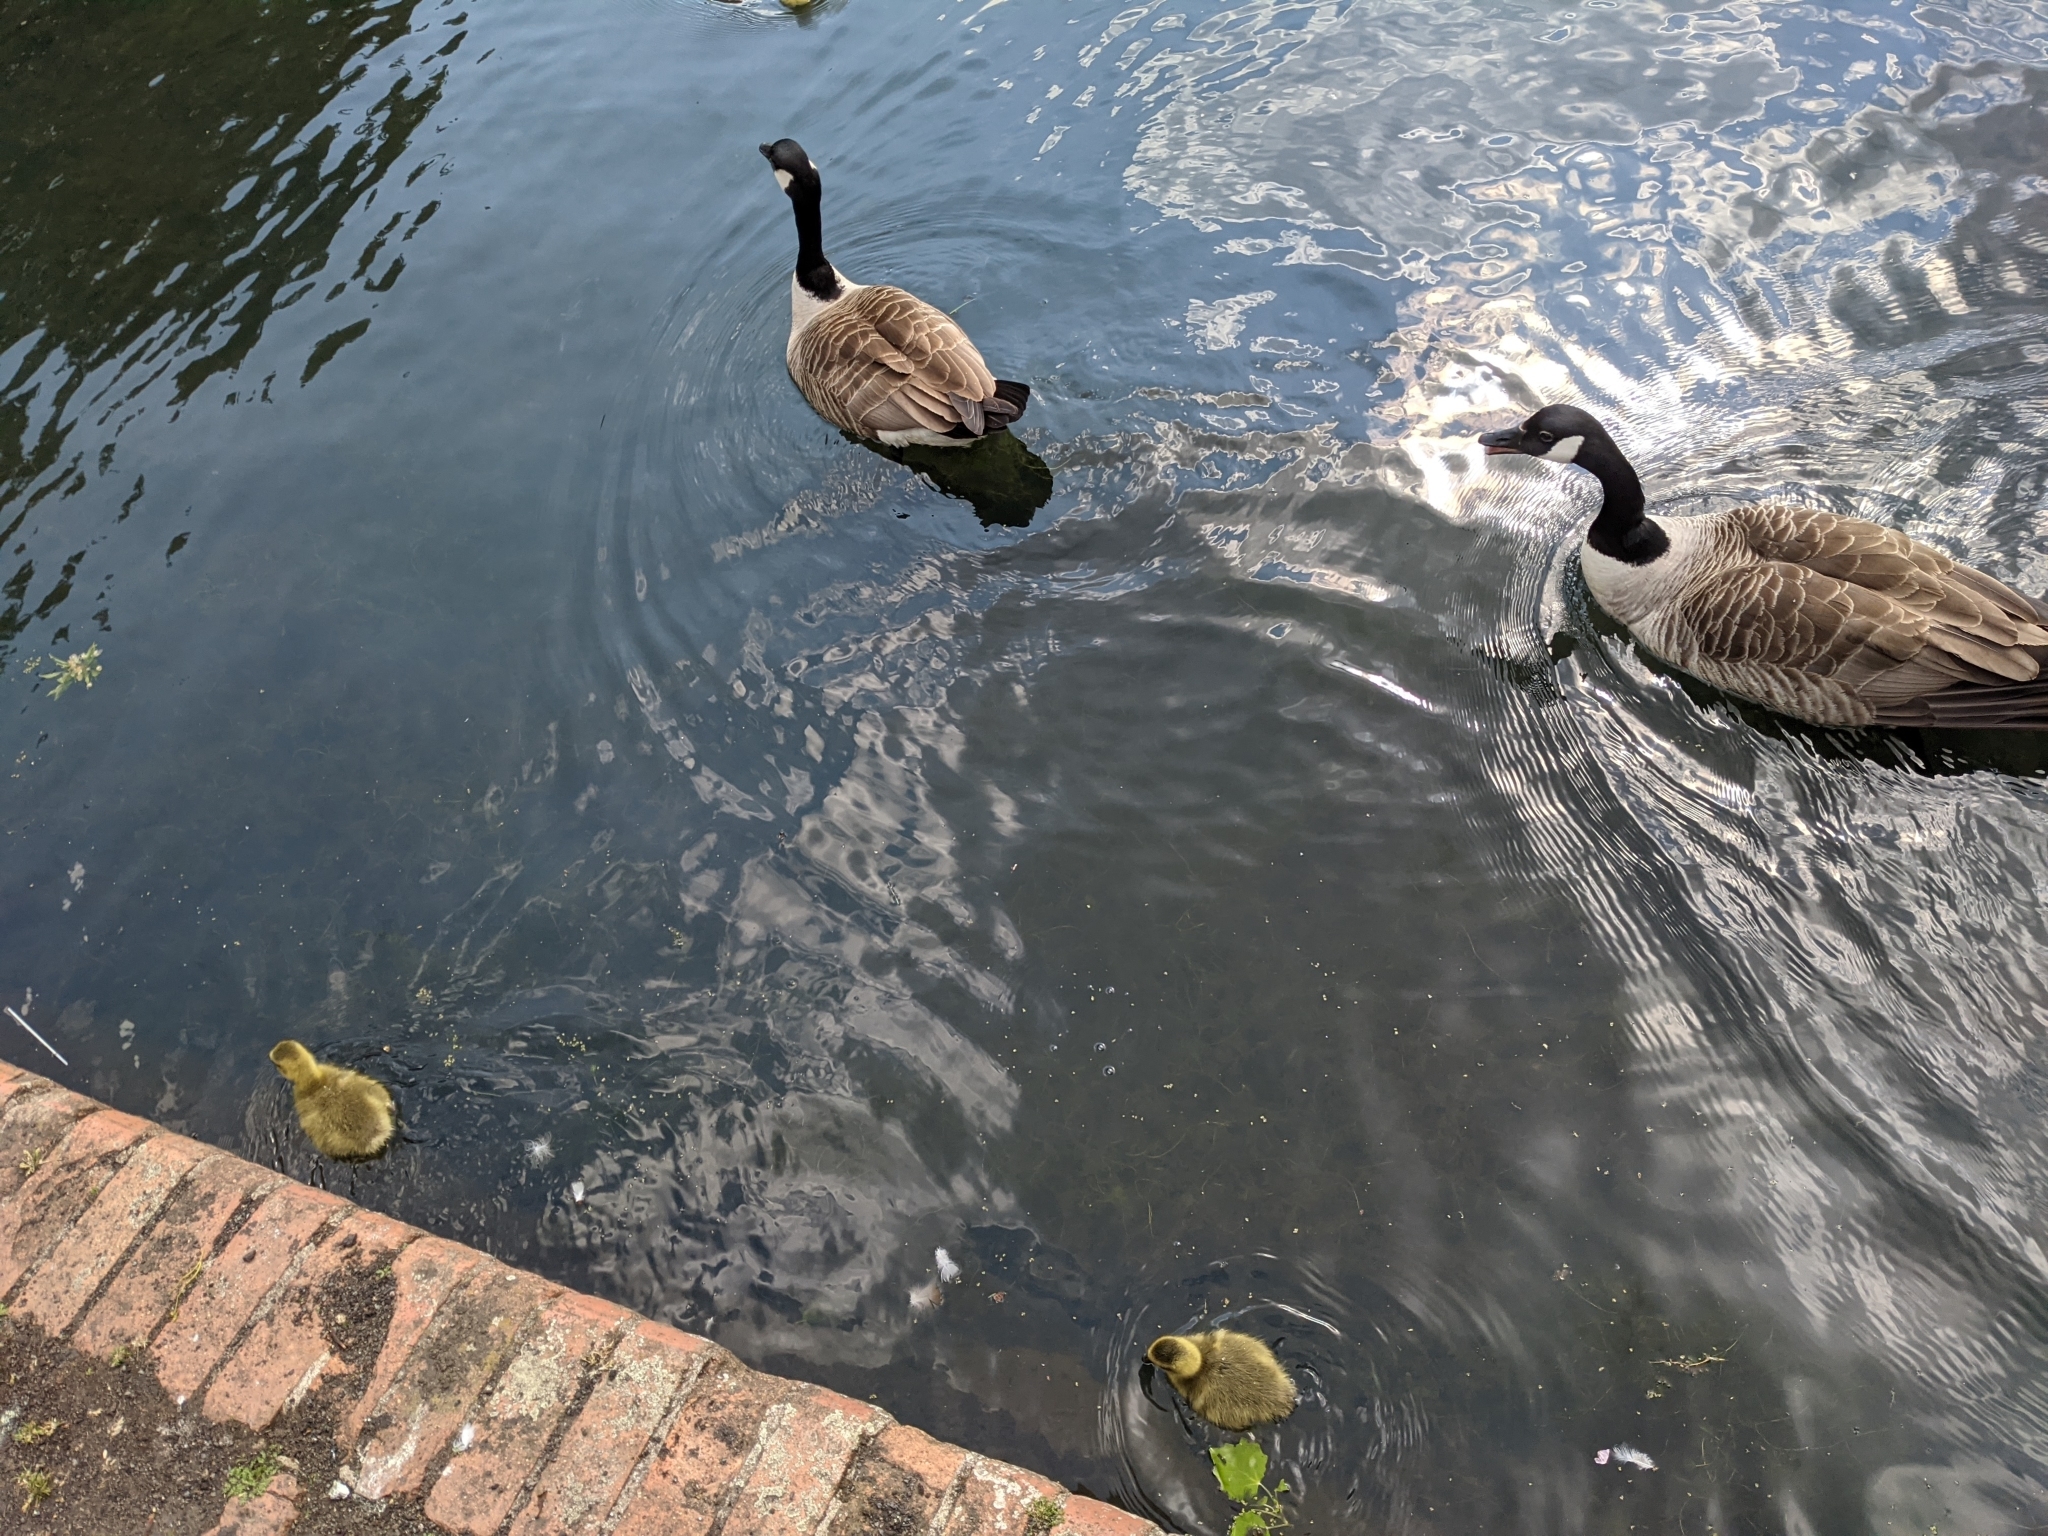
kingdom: Animalia
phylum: Chordata
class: Aves
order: Anseriformes
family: Anatidae
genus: Branta
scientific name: Branta canadensis
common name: Canada goose
